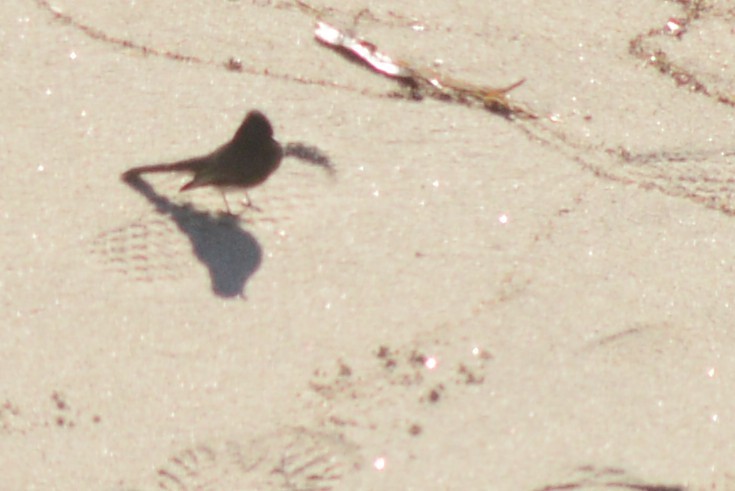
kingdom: Animalia
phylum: Chordata
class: Aves
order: Passeriformes
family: Tyrannidae
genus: Sayornis
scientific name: Sayornis nigricans
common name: Black phoebe
